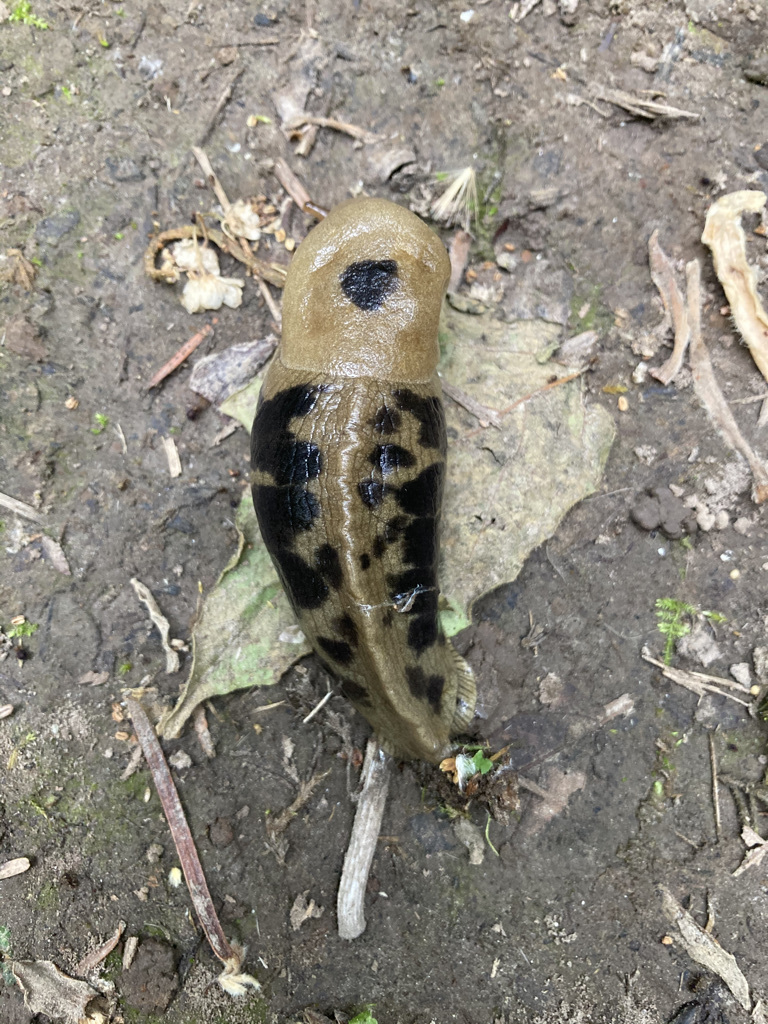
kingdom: Animalia
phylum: Mollusca
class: Gastropoda
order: Stylommatophora
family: Ariolimacidae
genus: Ariolimax
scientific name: Ariolimax columbianus
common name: Pacific banana slug
